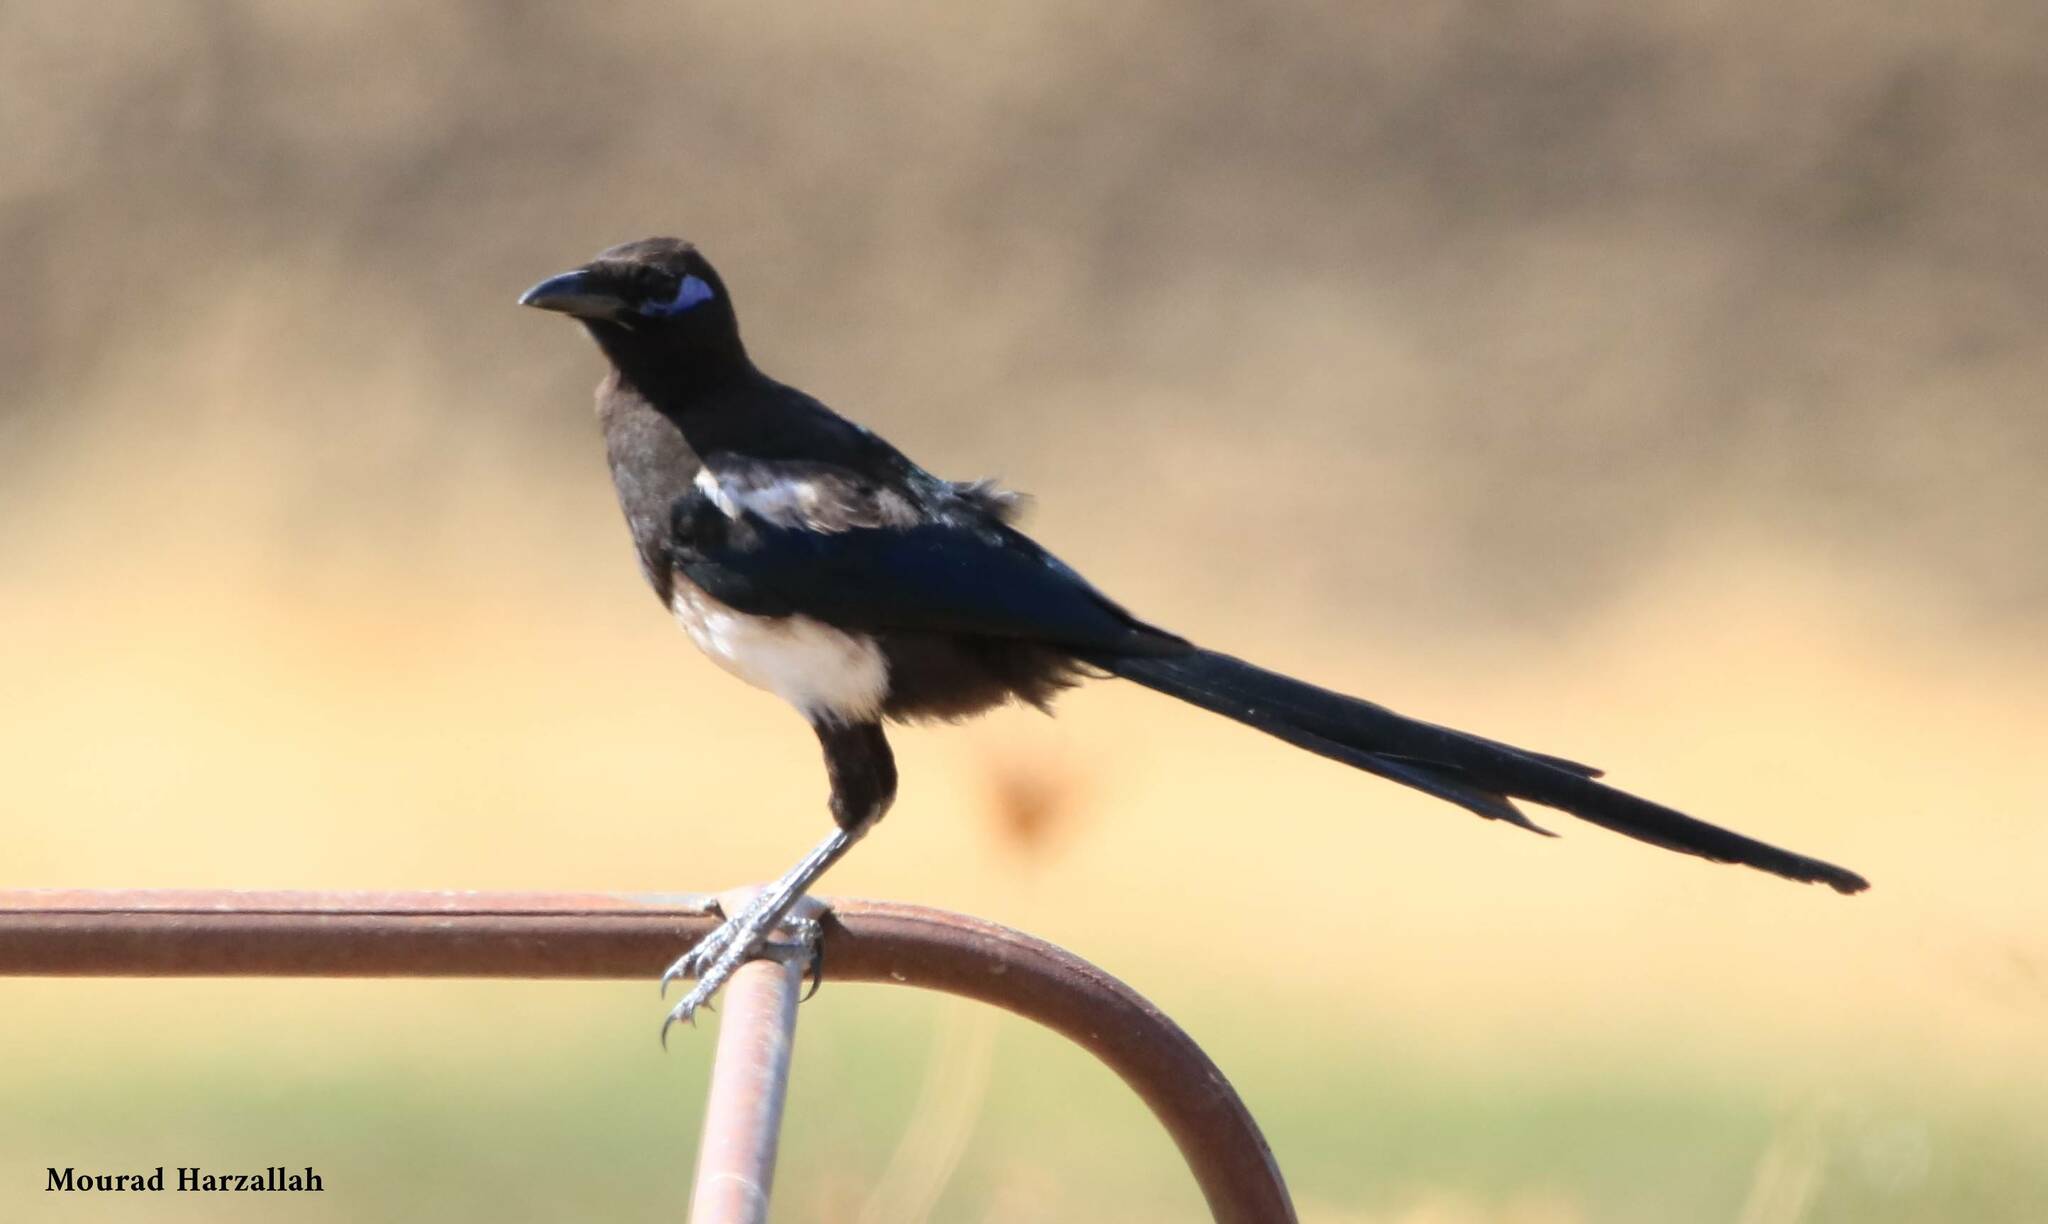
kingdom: Animalia
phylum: Chordata
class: Aves
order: Passeriformes
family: Corvidae
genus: Pica
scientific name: Pica mauritanica
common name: Maghreb magpie
